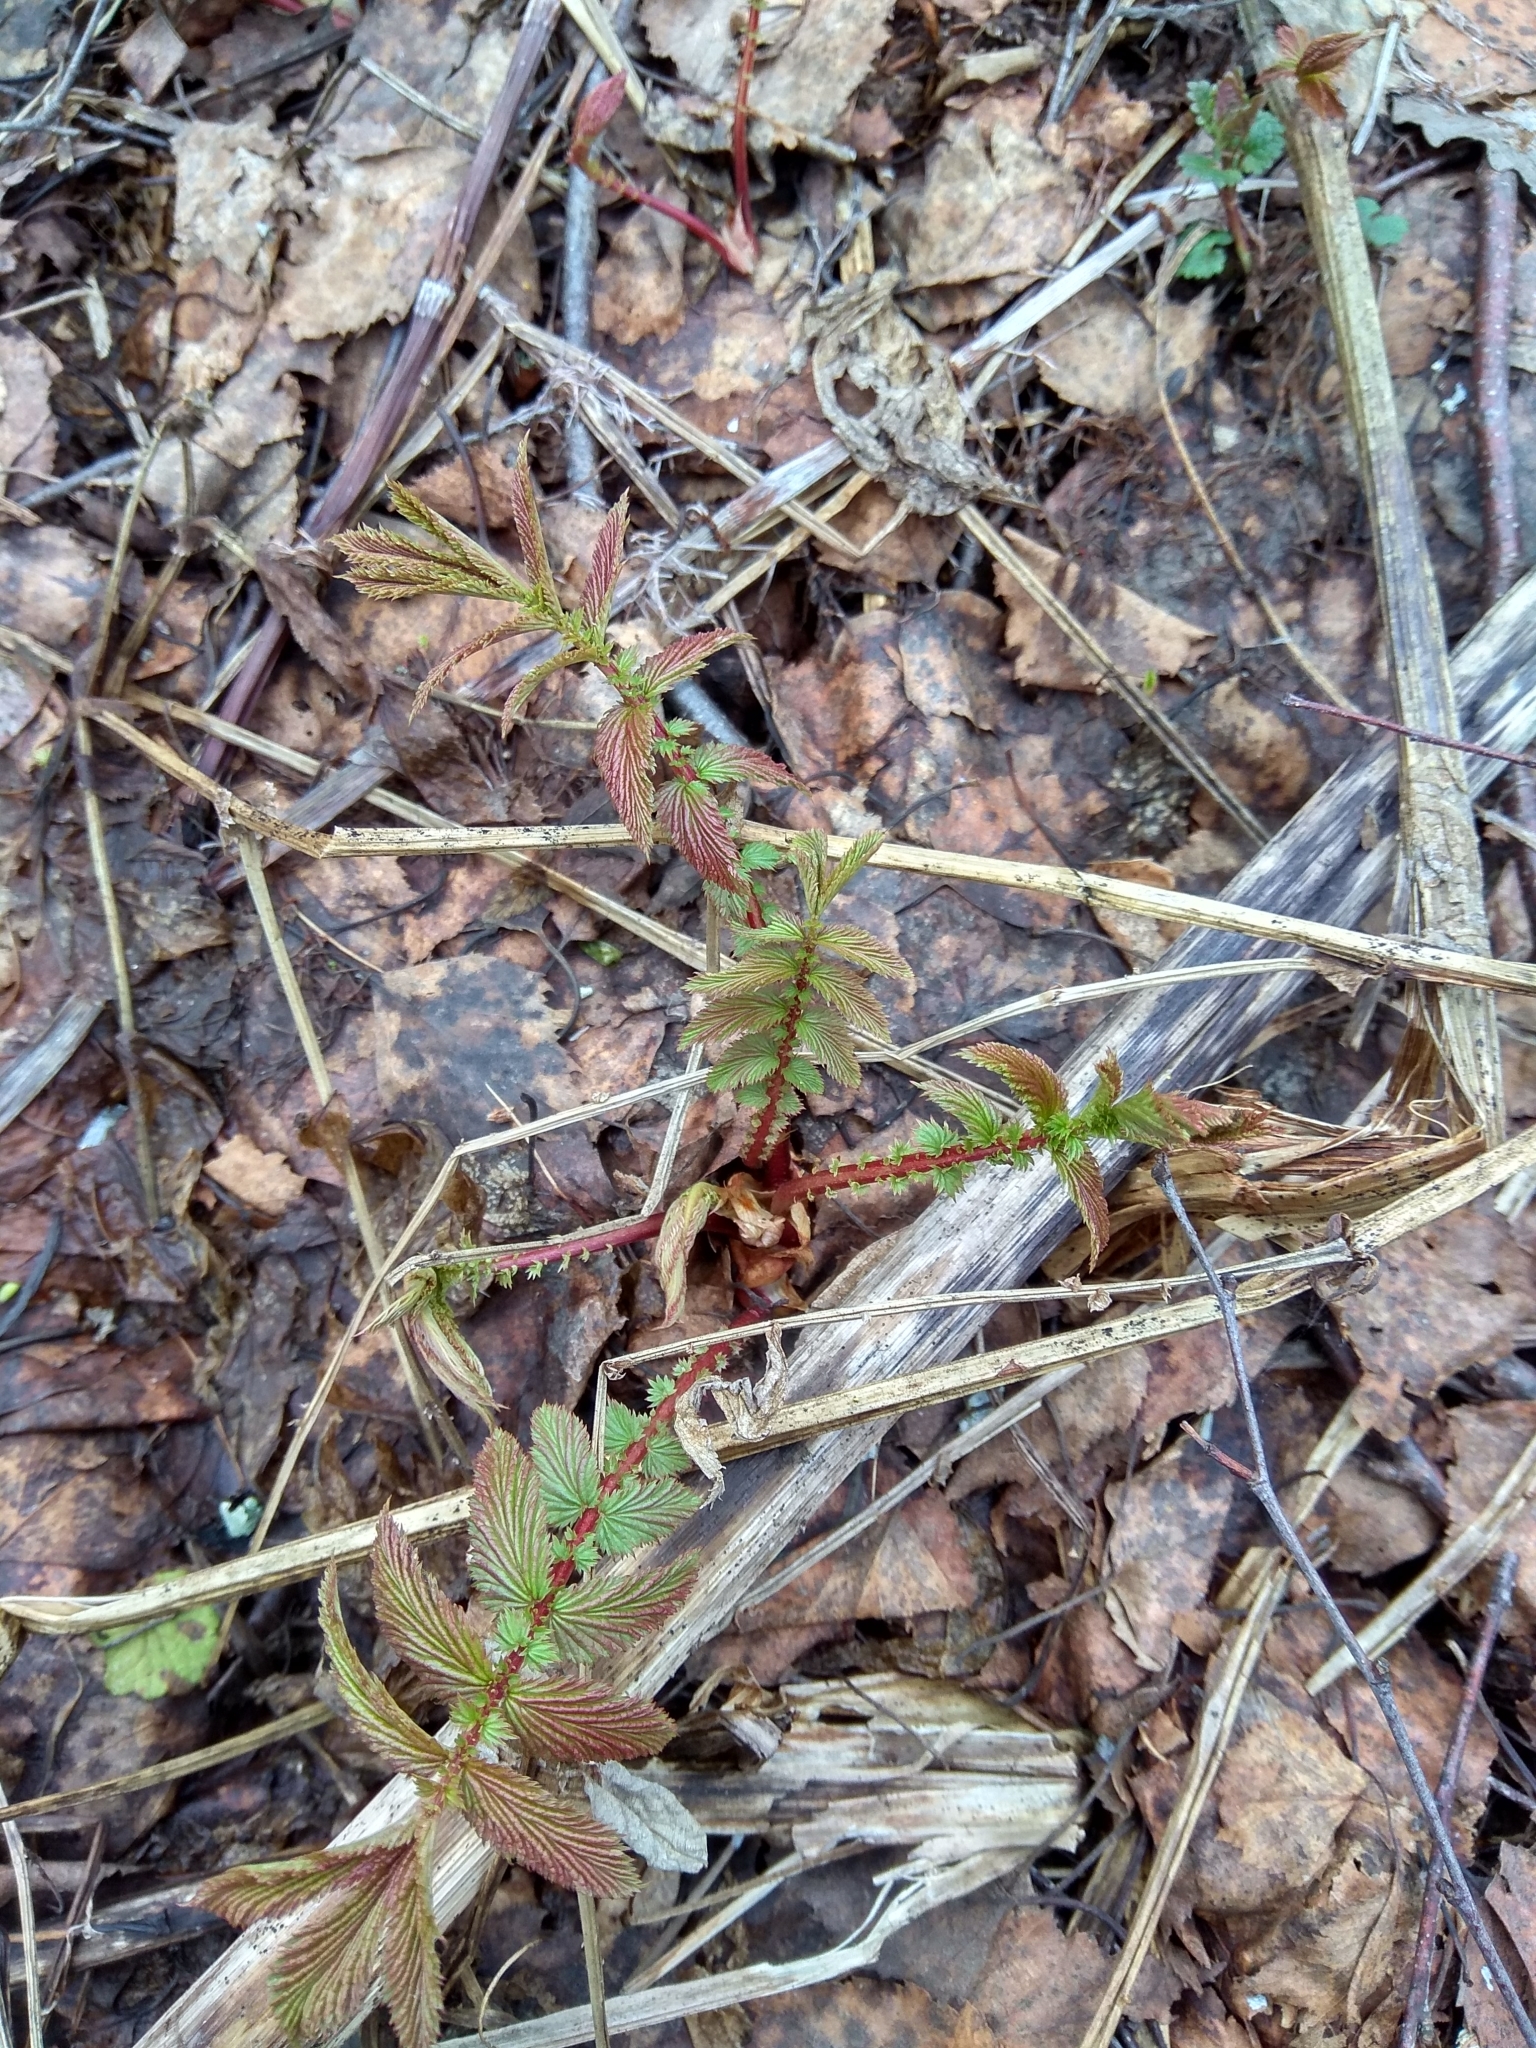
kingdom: Plantae
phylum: Tracheophyta
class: Magnoliopsida
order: Rosales
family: Rosaceae
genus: Filipendula
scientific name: Filipendula ulmaria
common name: Meadowsweet
